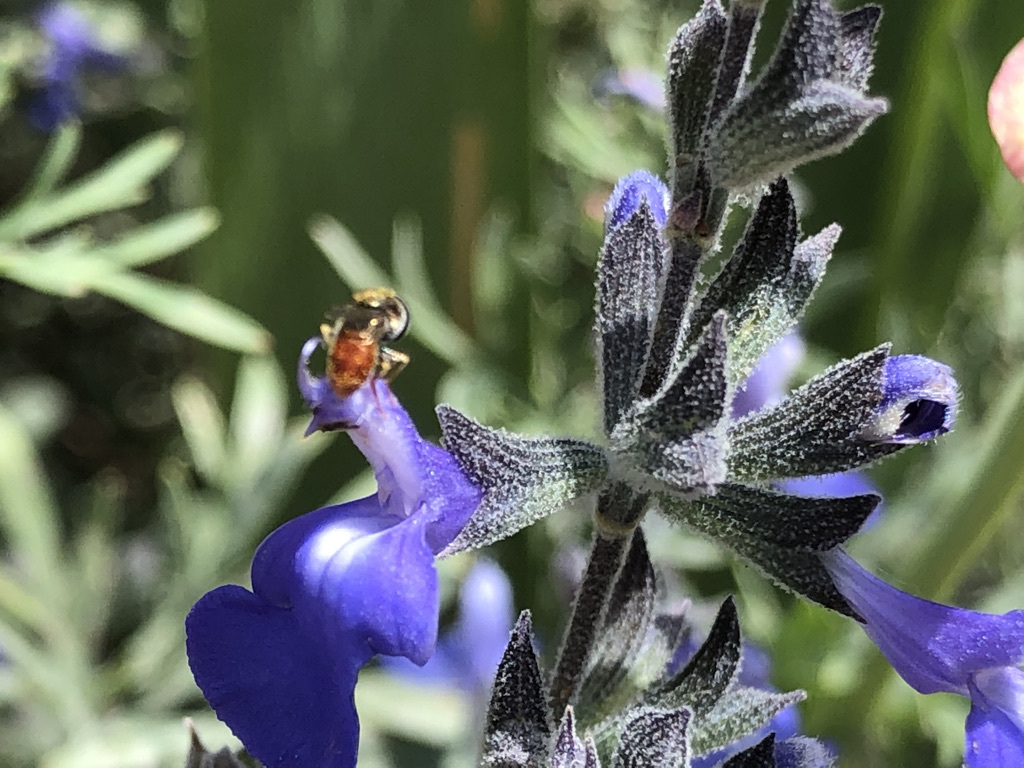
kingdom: Animalia
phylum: Arthropoda
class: Insecta
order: Diptera
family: Syrphidae
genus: Paragus
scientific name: Paragus haemorrhous
